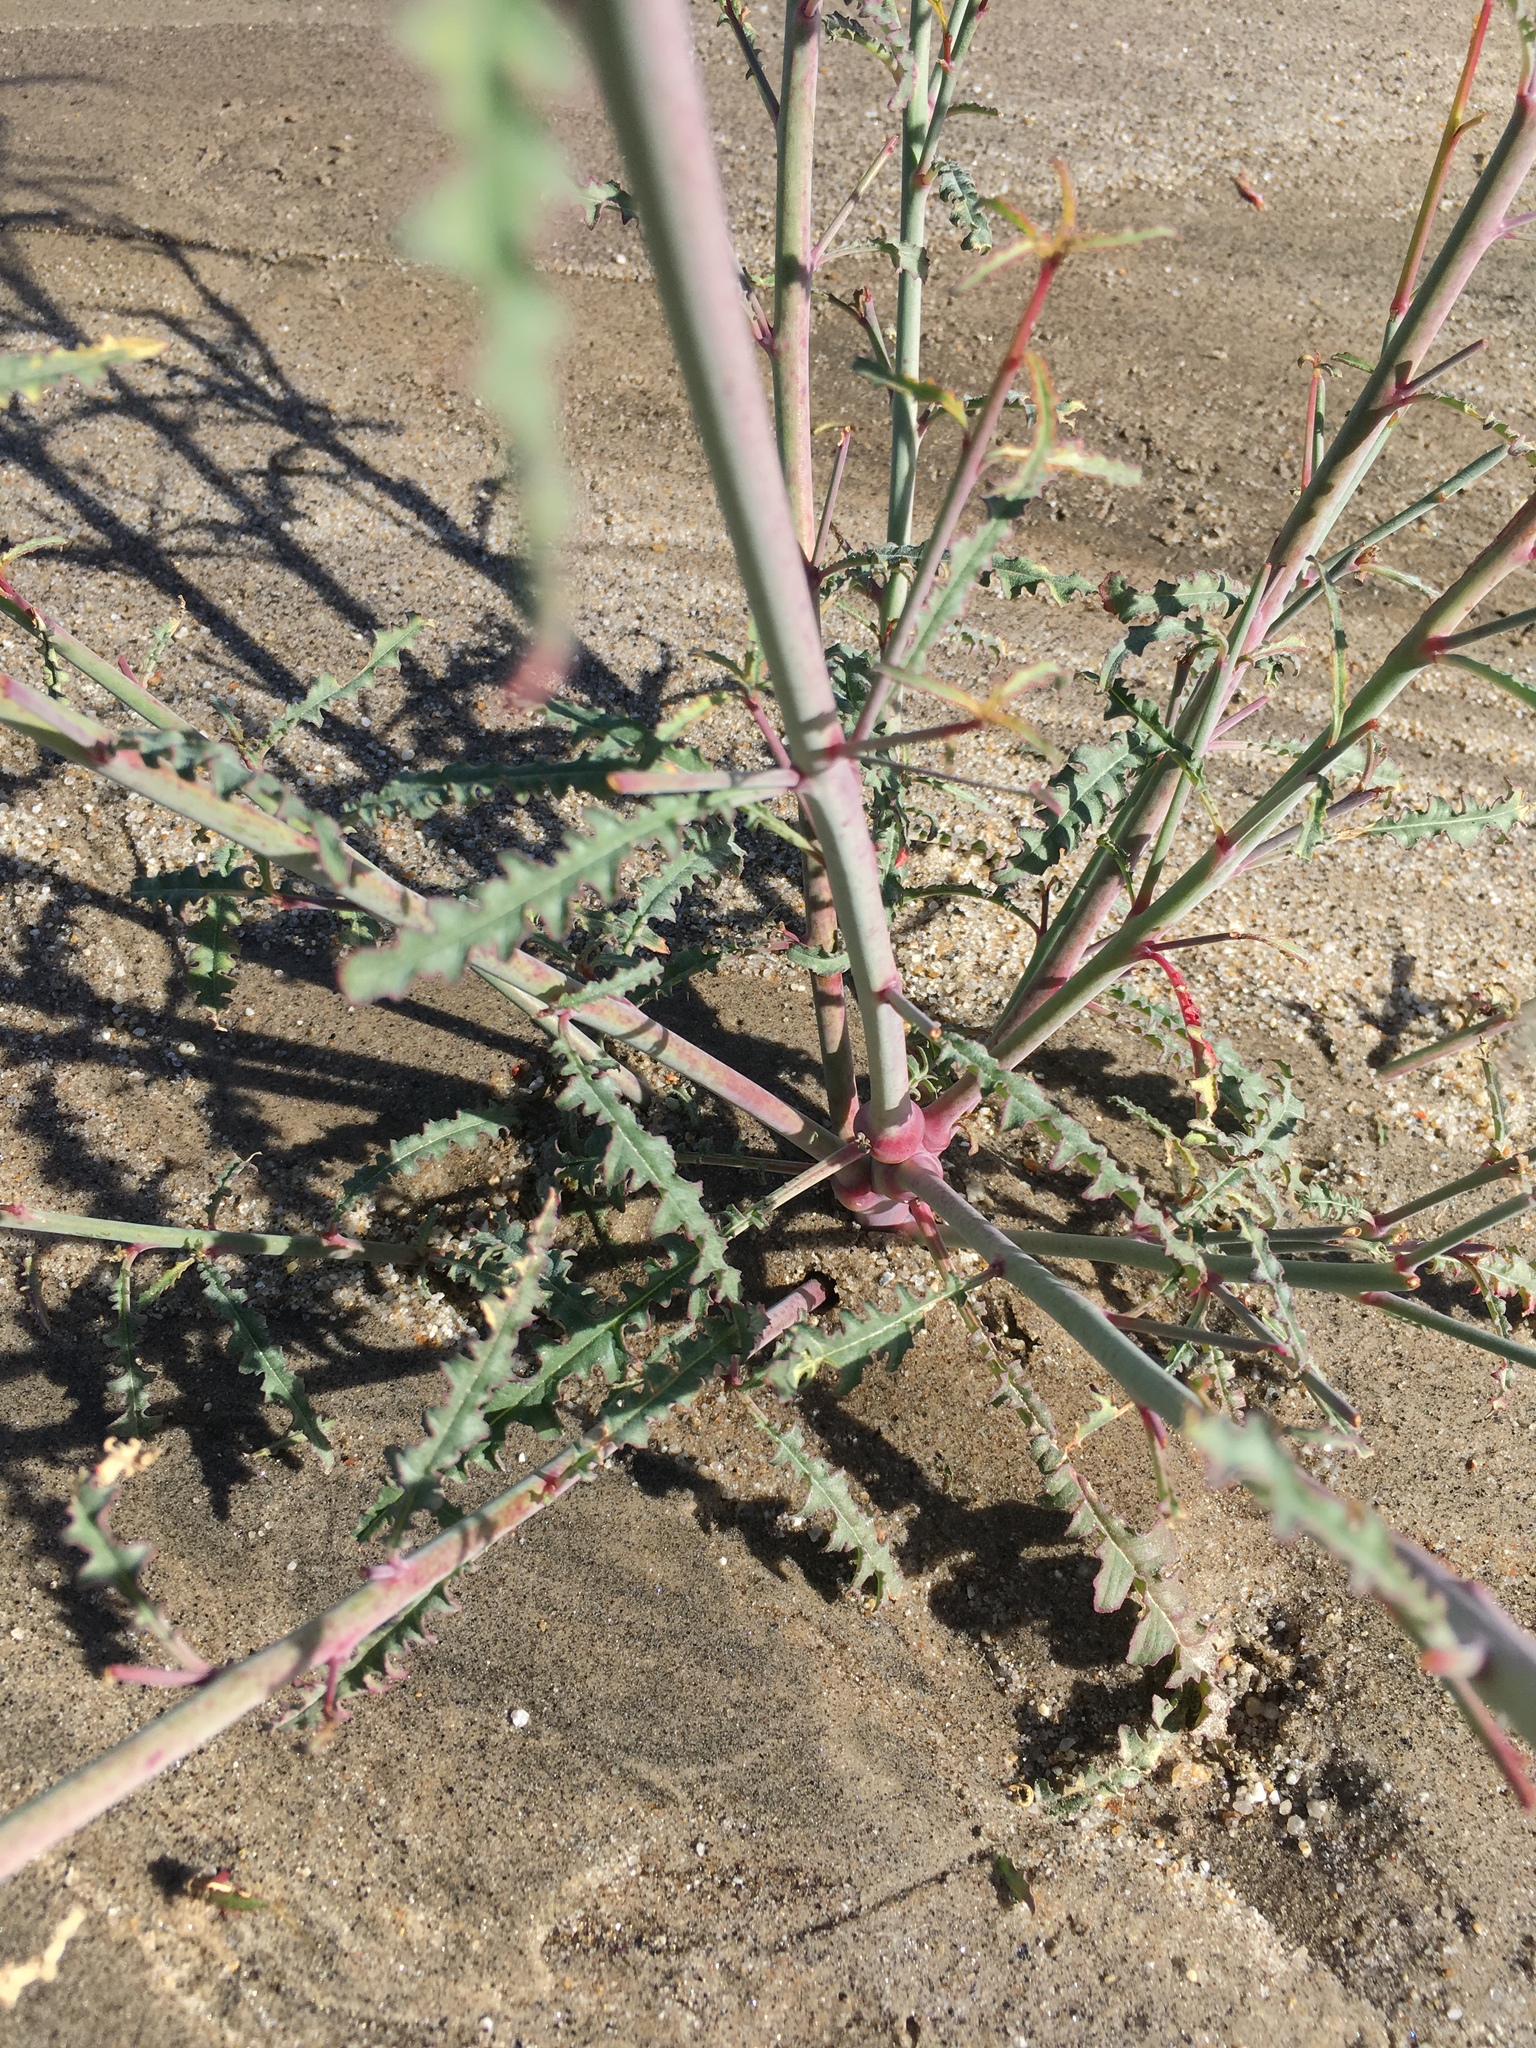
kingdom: Plantae
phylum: Tracheophyta
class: Magnoliopsida
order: Myrtales
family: Onagraceae
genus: Eulobus
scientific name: Eulobus californicus
